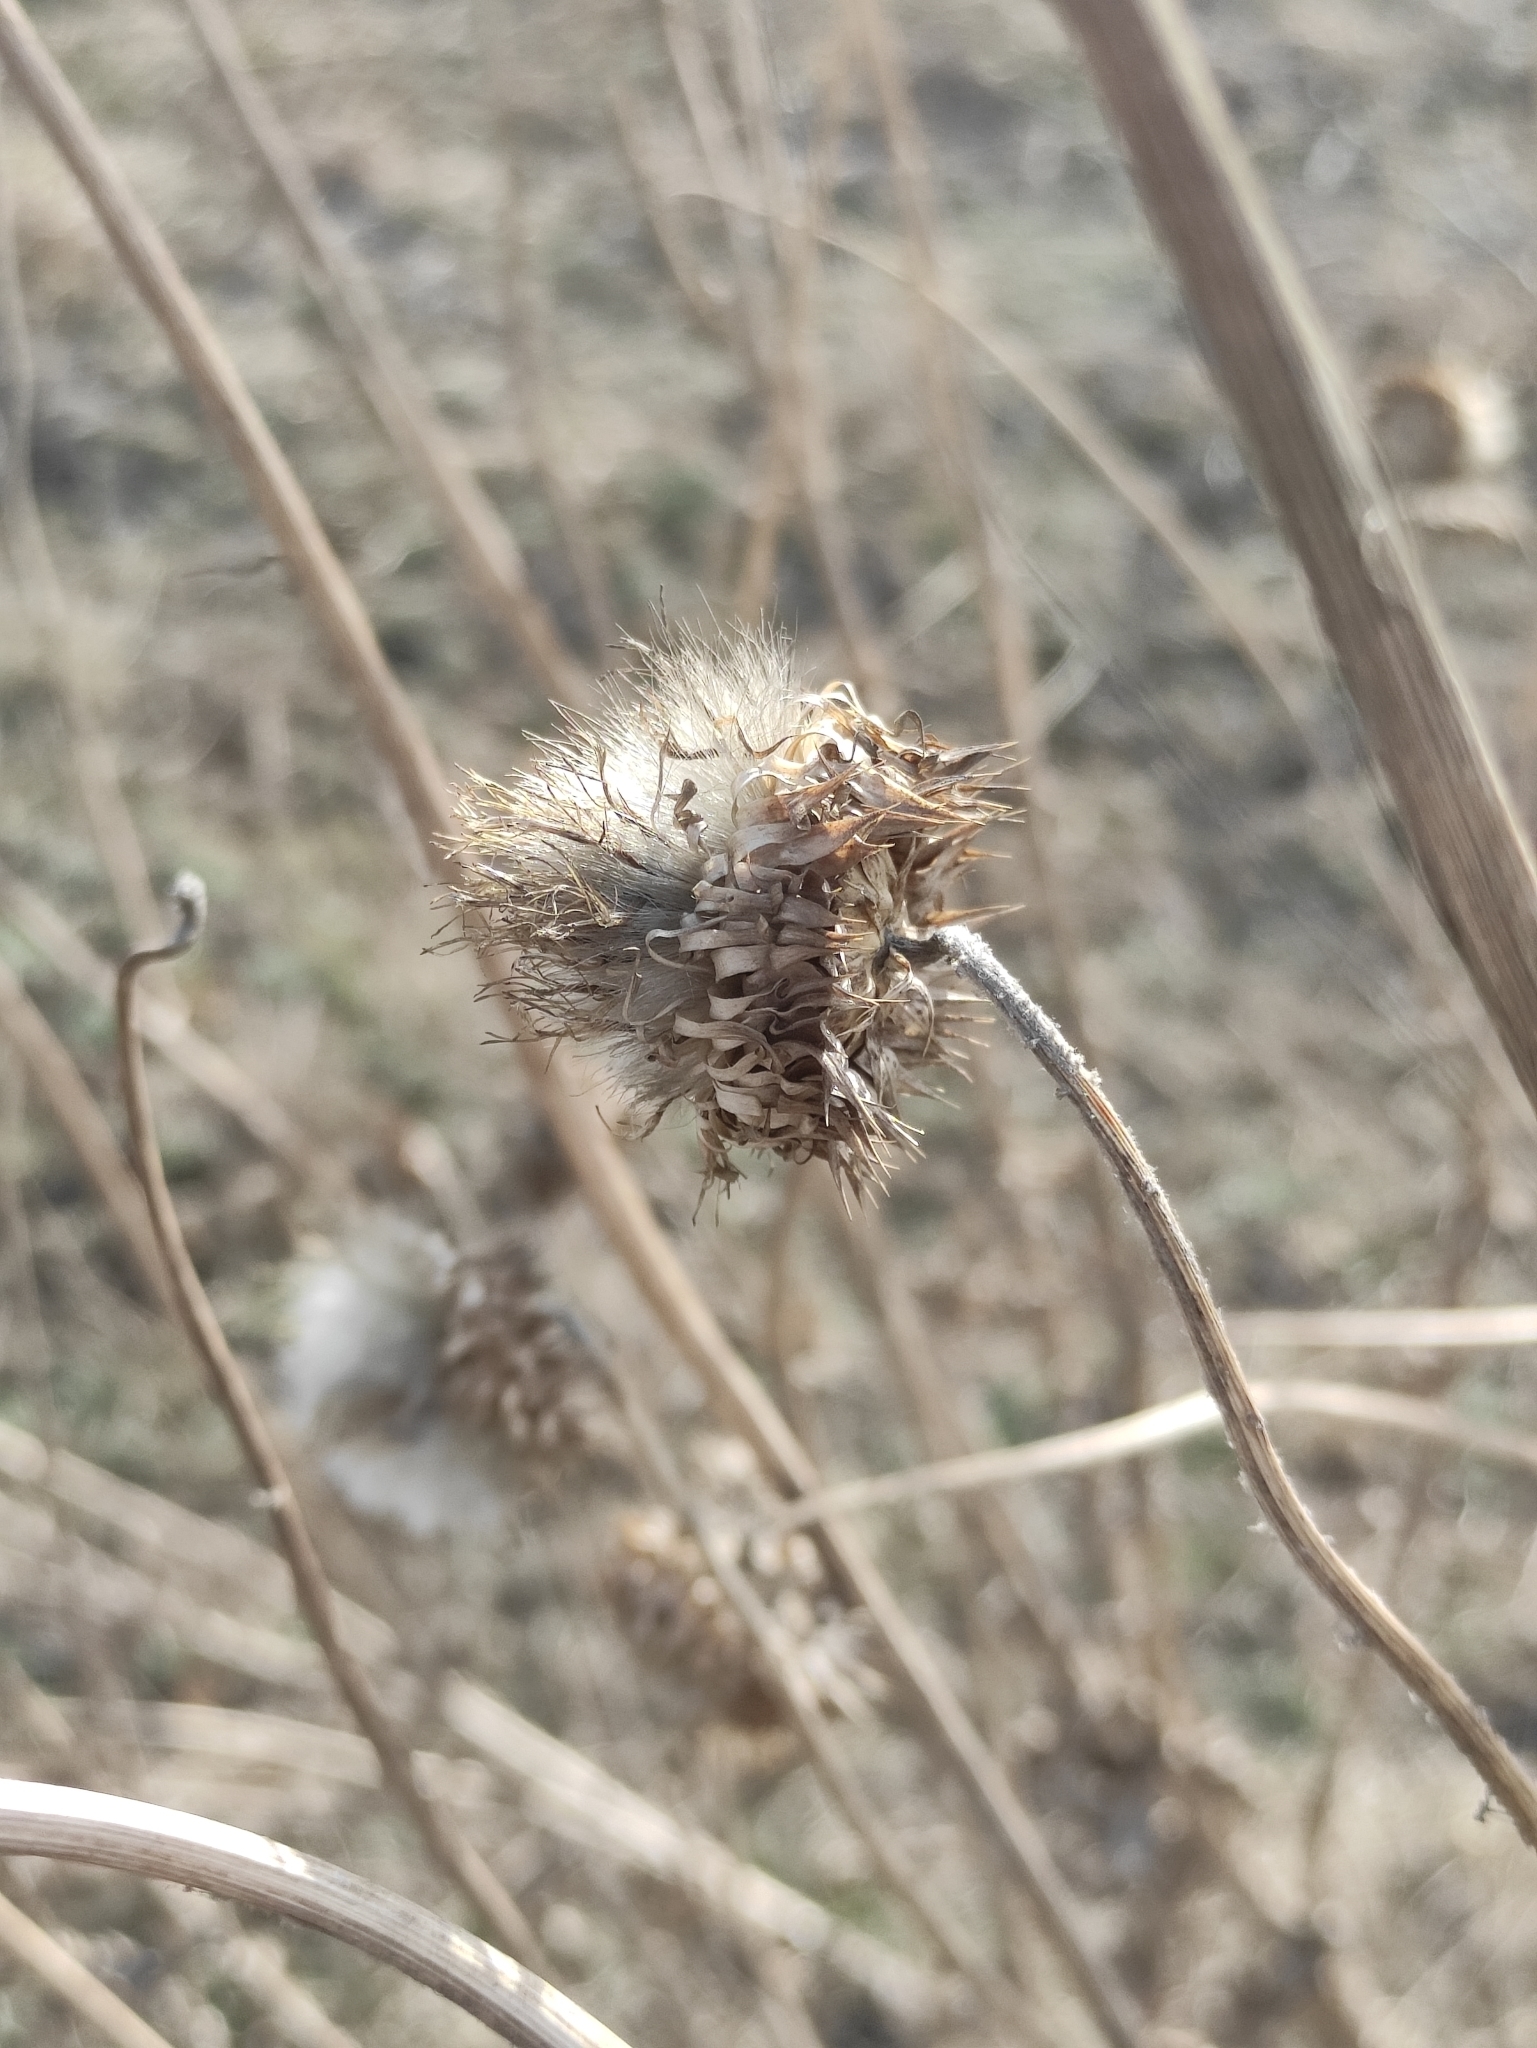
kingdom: Plantae
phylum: Tracheophyta
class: Magnoliopsida
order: Asterales
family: Asteraceae
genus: Carduus
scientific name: Carduus nutans
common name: Musk thistle
